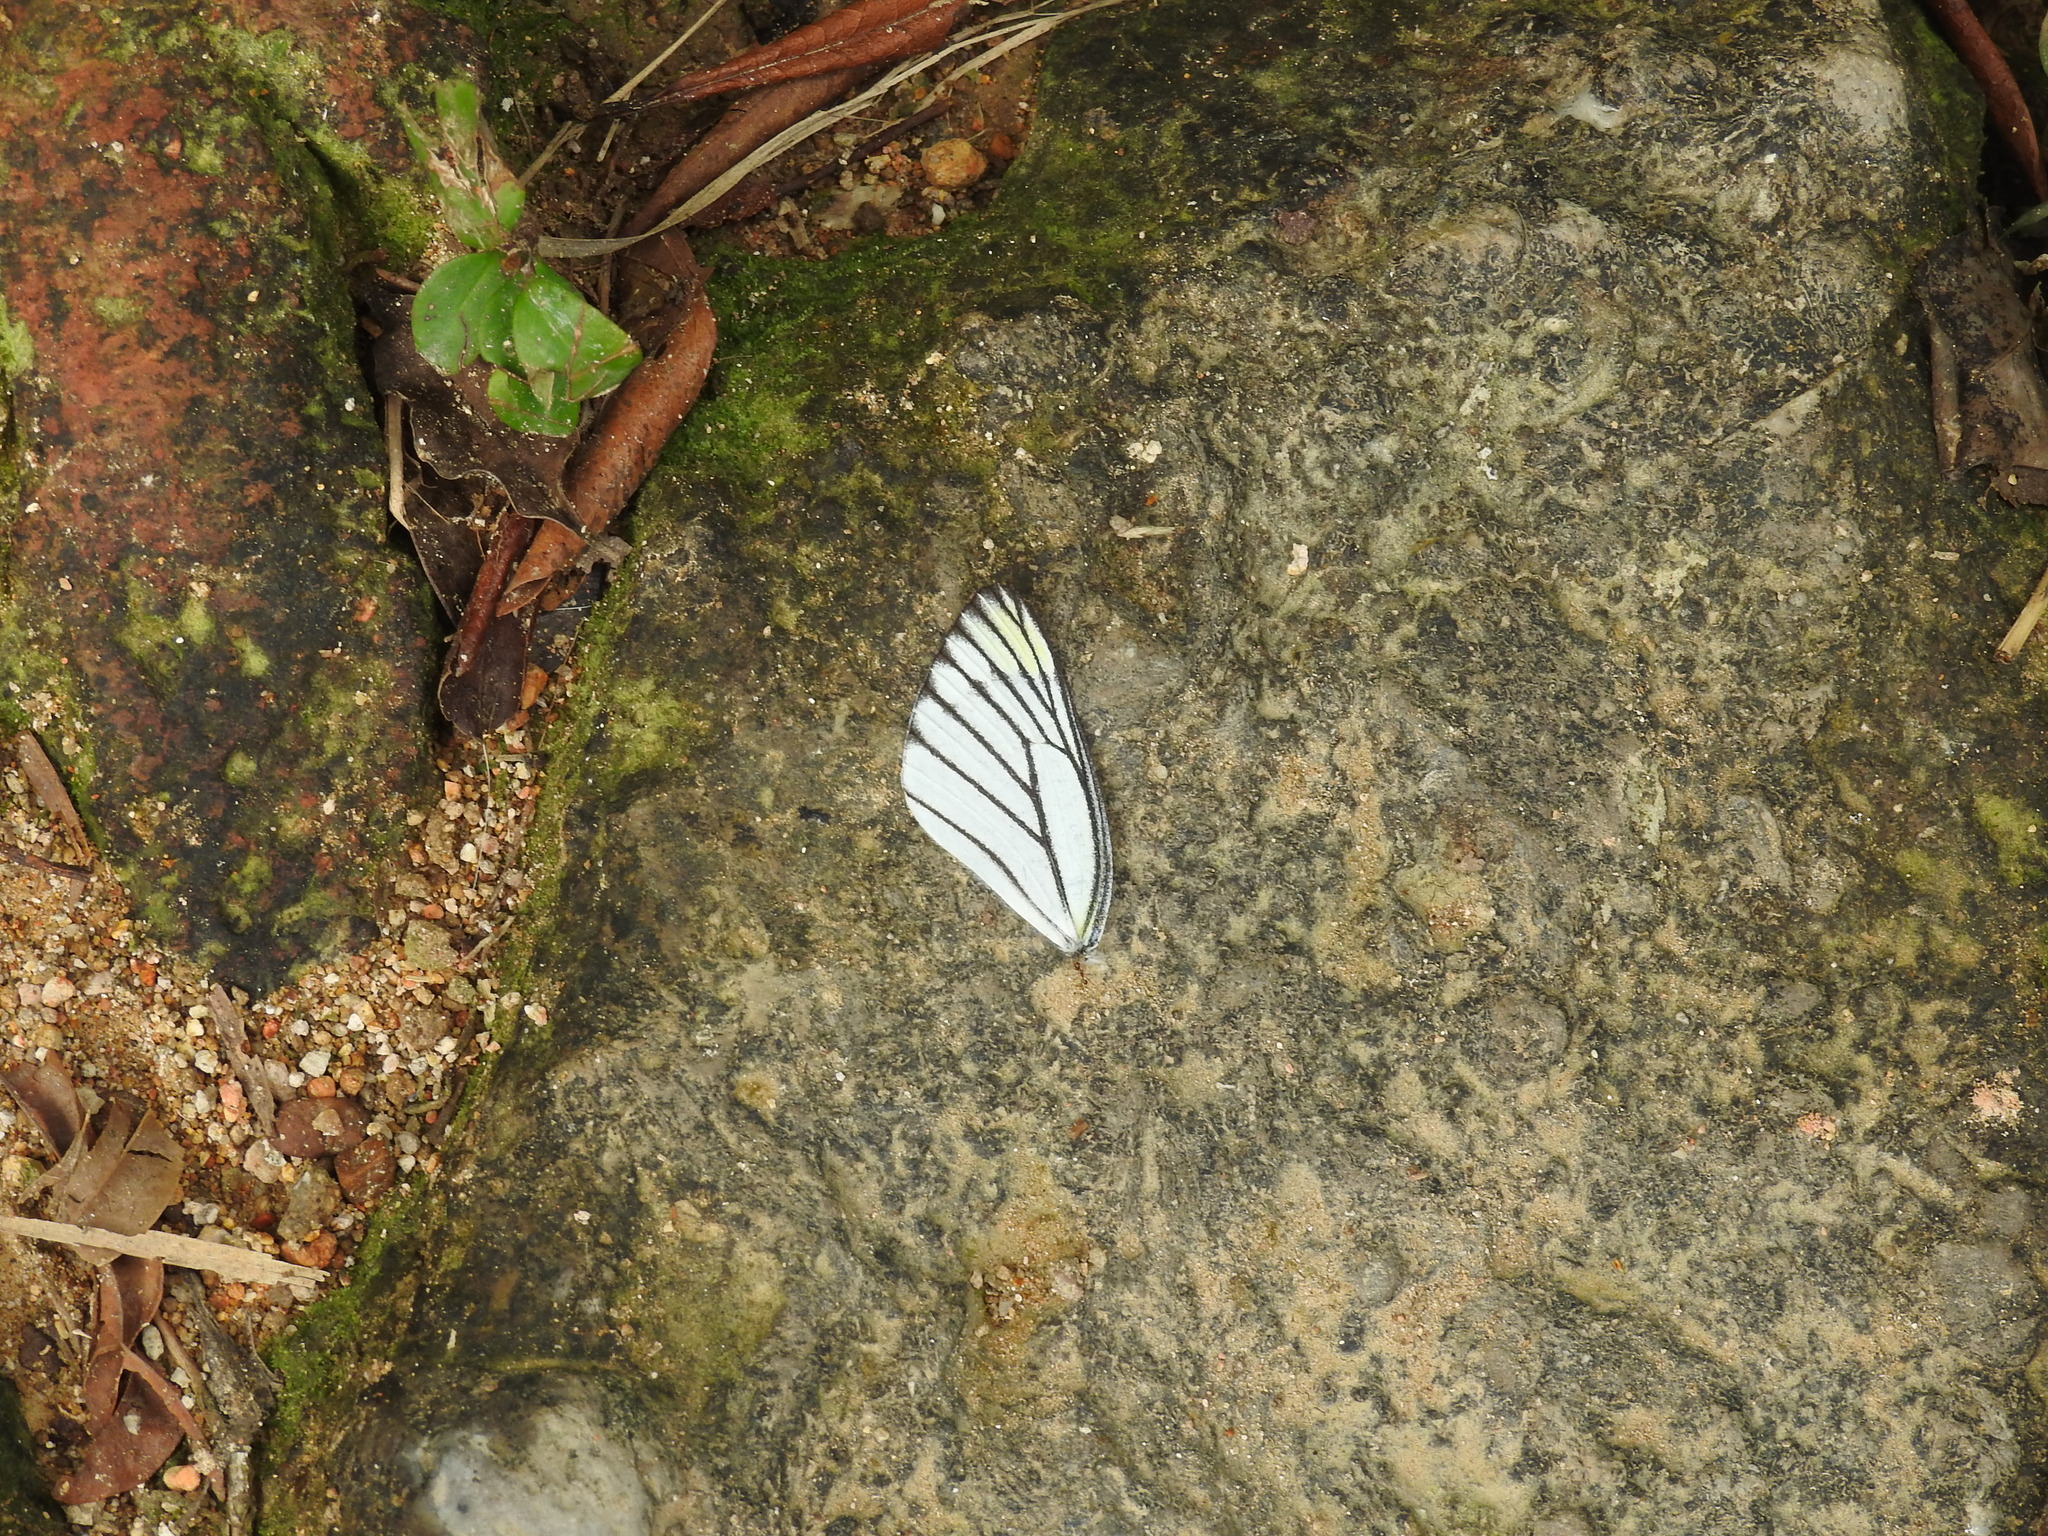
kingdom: Animalia
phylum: Arthropoda
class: Insecta
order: Lepidoptera
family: Pieridae
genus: Delias
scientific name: Delias hyparete
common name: Painted jezebel
